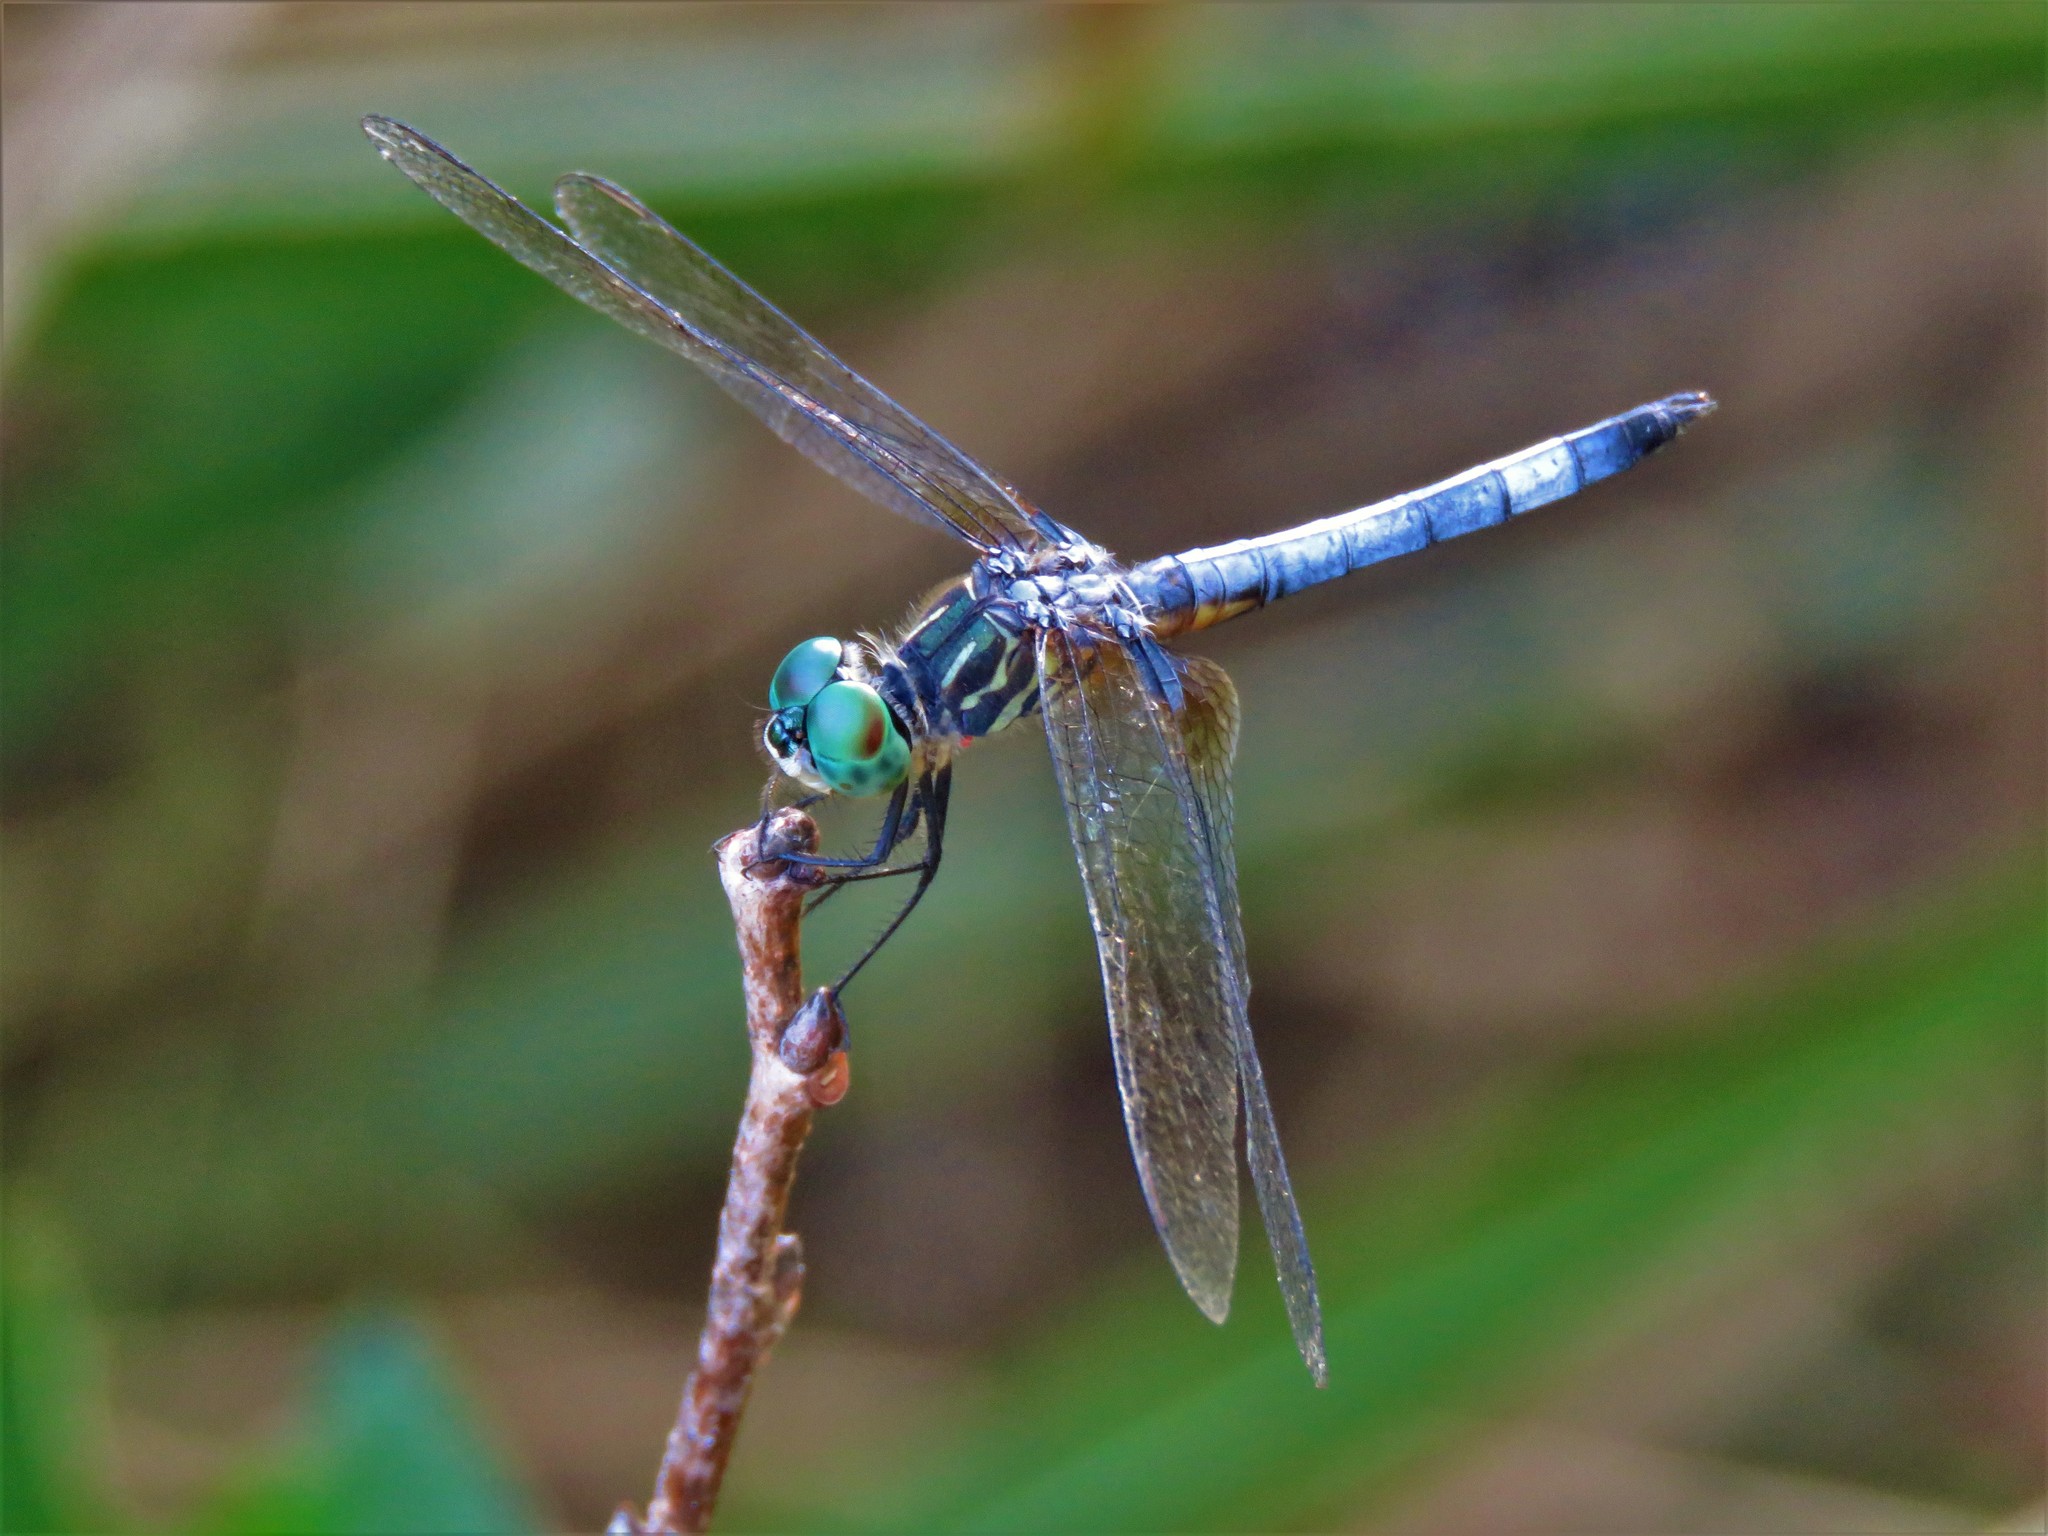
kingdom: Animalia
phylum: Arthropoda
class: Insecta
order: Odonata
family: Libellulidae
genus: Pachydiplax
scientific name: Pachydiplax longipennis
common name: Blue dasher
